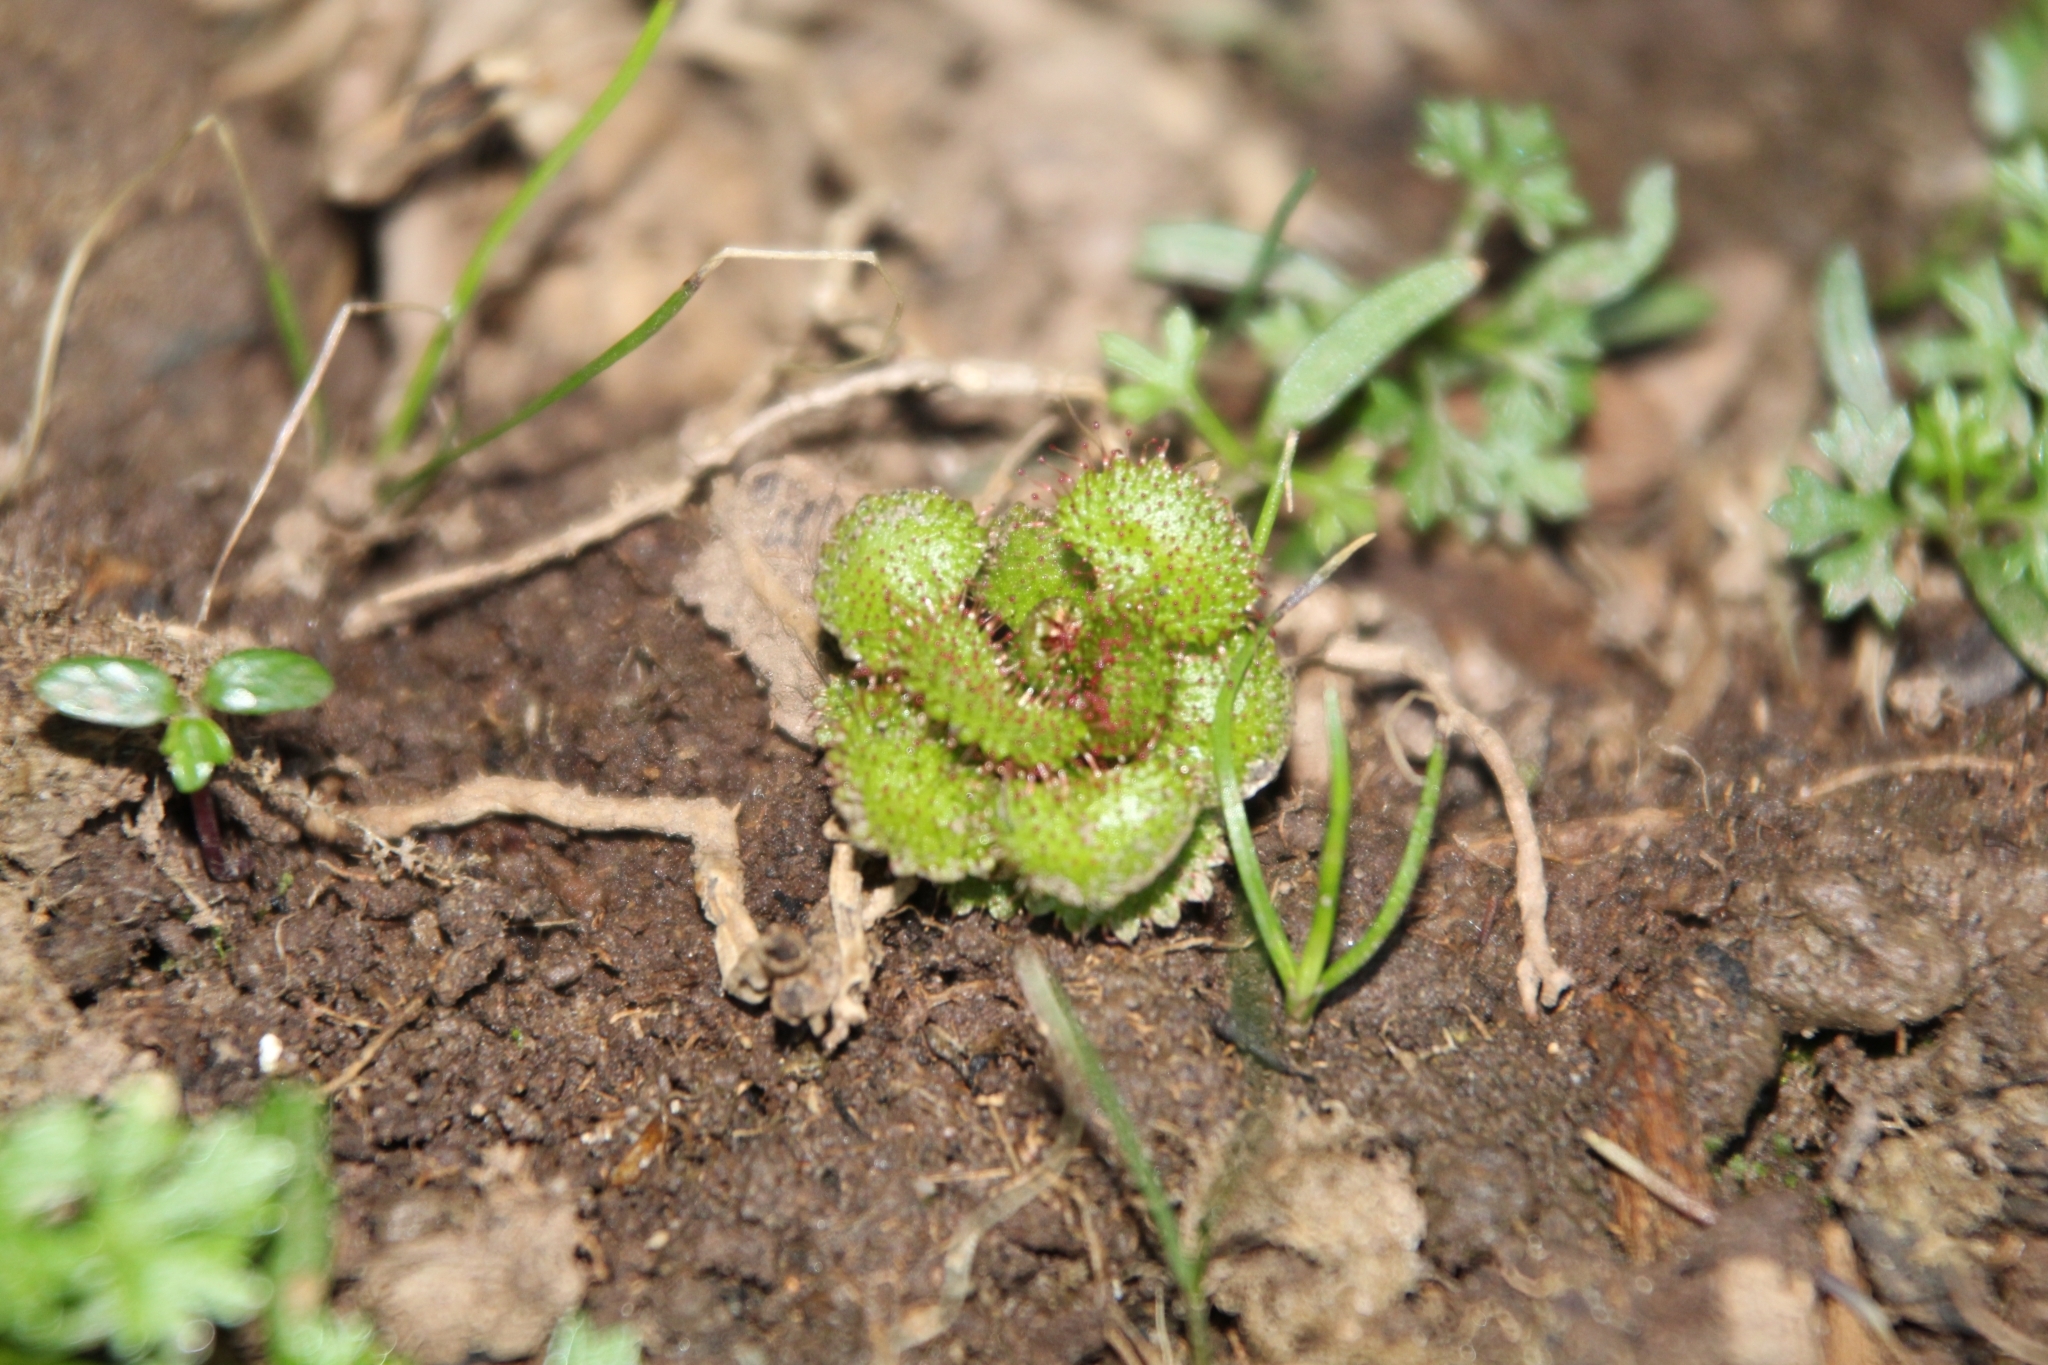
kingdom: Plantae
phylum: Tracheophyta
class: Magnoliopsida
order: Caryophyllales
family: Droseraceae
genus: Drosera
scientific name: Drosera monticola
